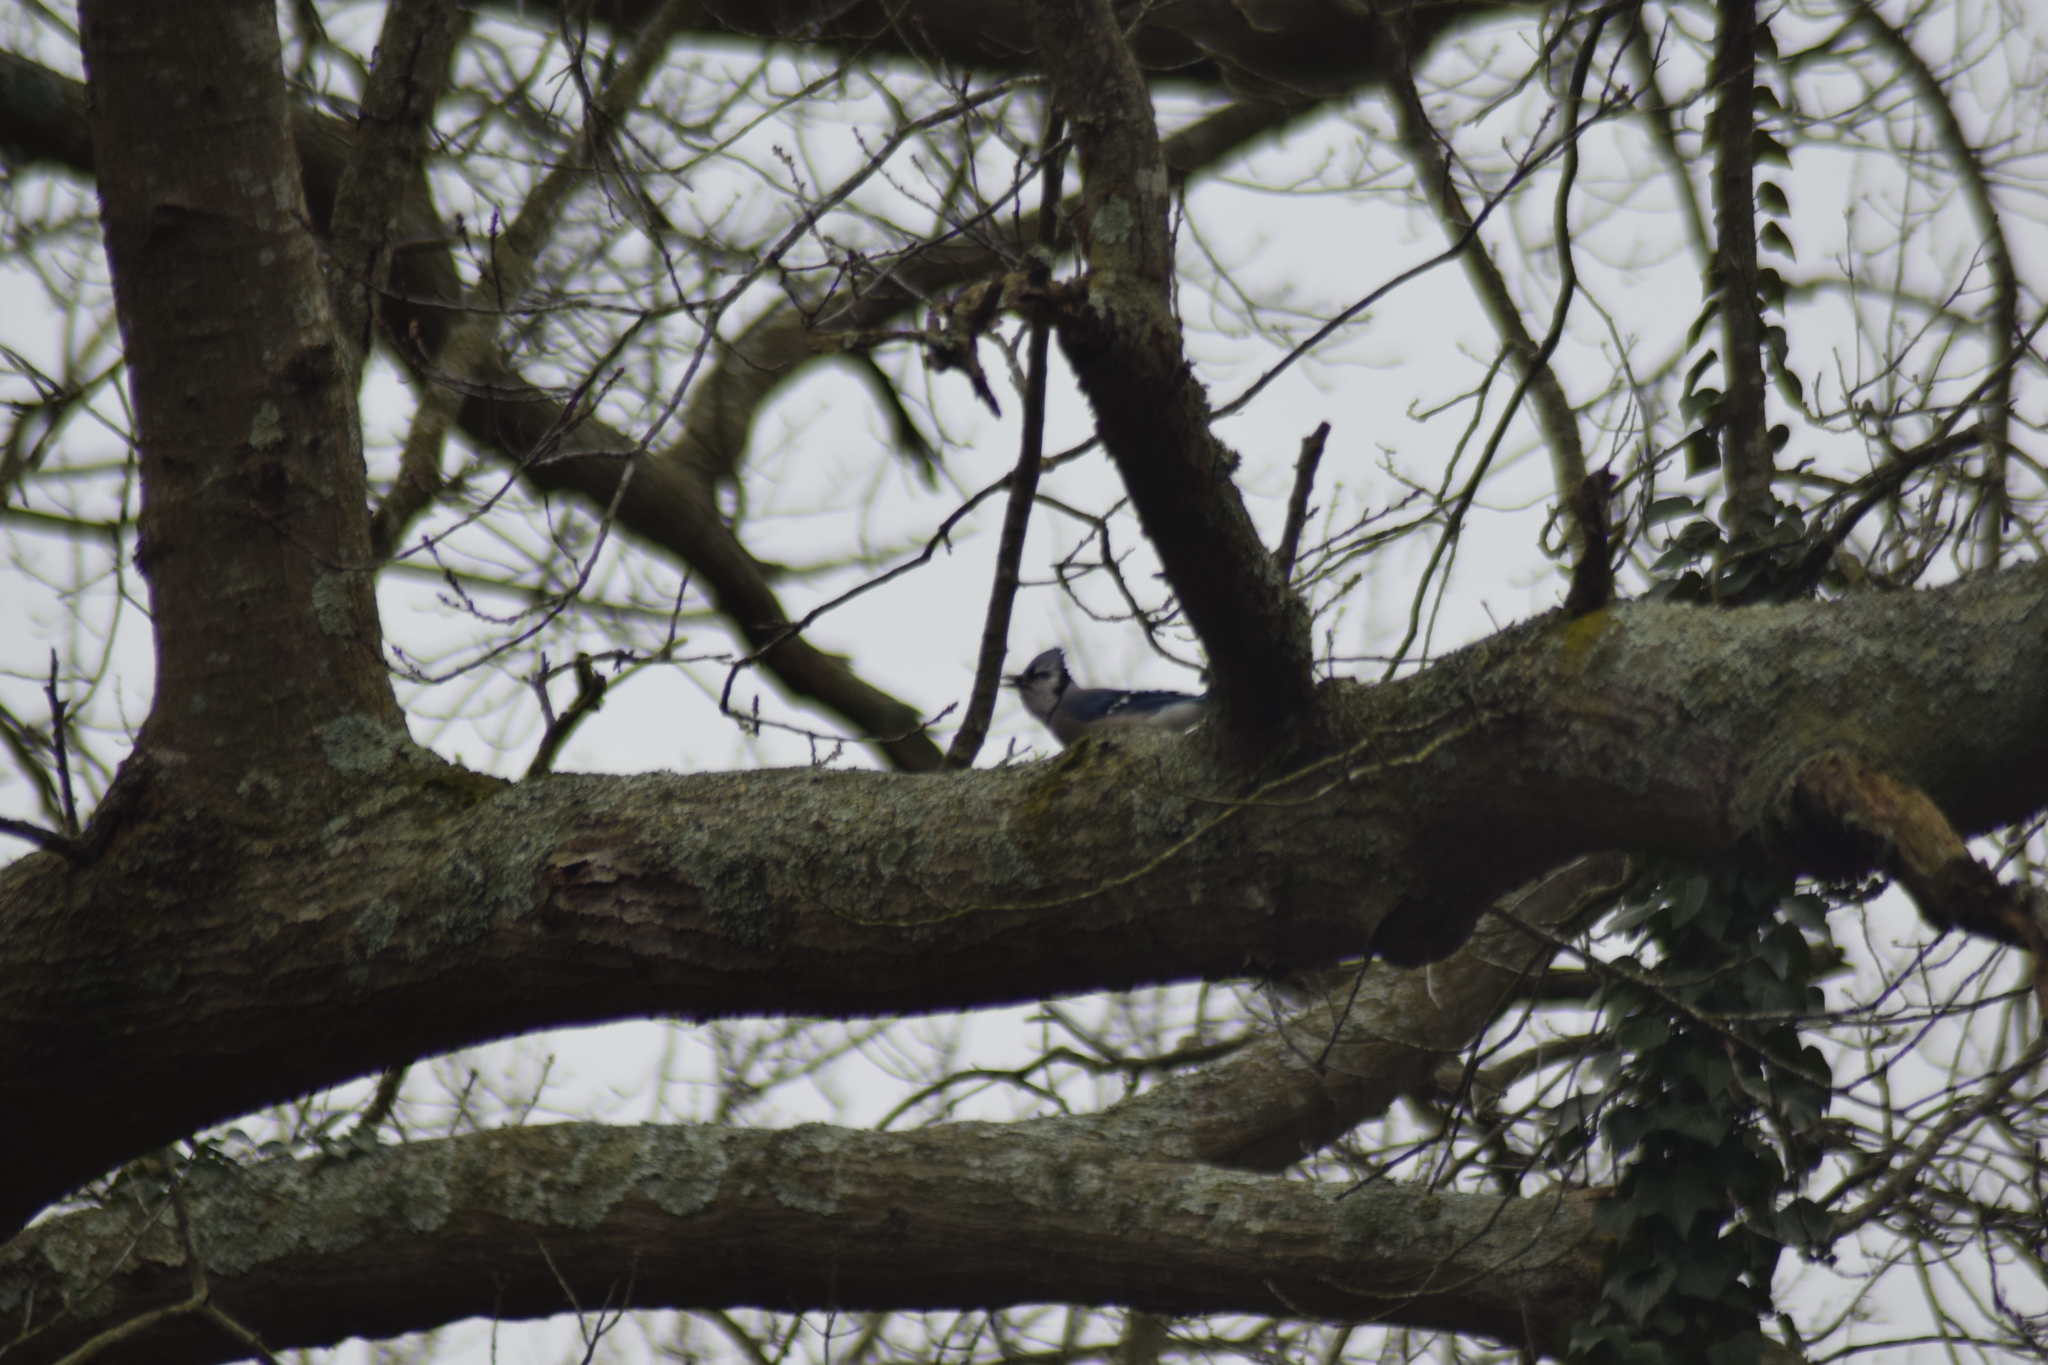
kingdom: Animalia
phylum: Chordata
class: Aves
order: Passeriformes
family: Corvidae
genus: Cyanocitta
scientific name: Cyanocitta cristata
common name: Blue jay
